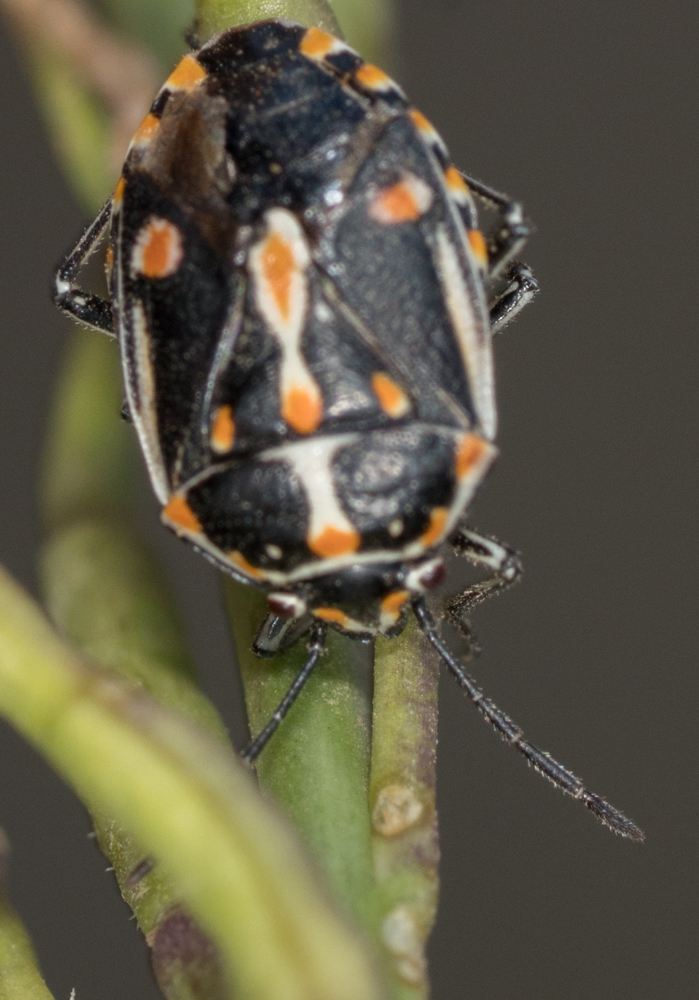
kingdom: Animalia
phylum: Arthropoda
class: Insecta
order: Hemiptera
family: Pentatomidae
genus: Bagrada
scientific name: Bagrada hilaris
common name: Bagrada bug
